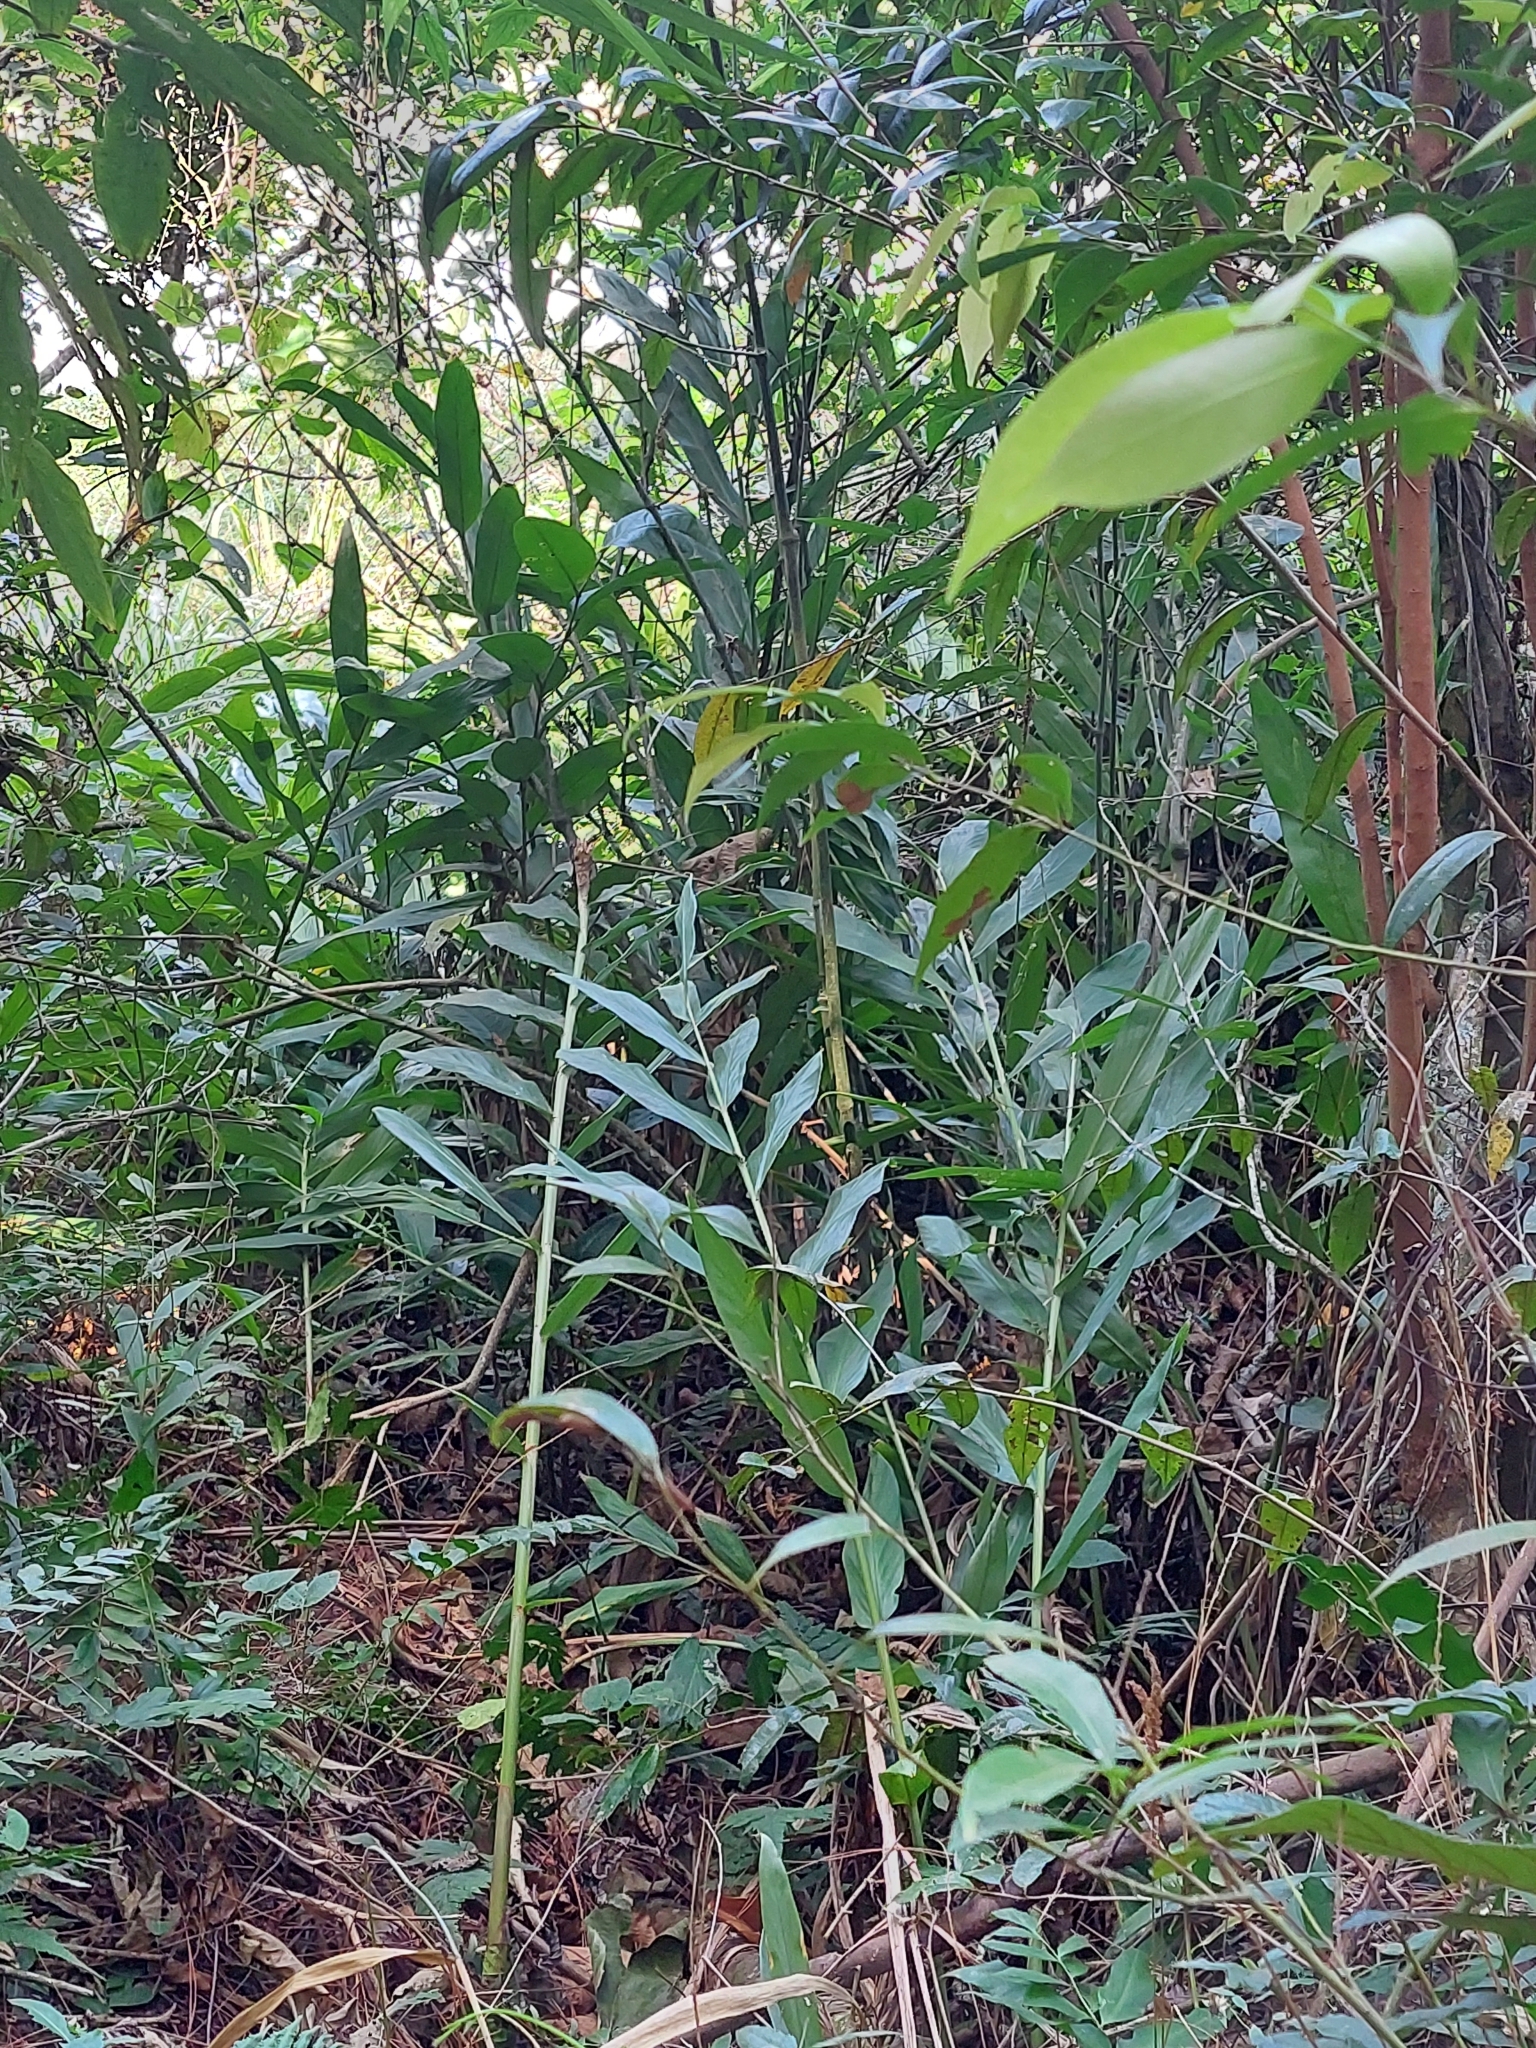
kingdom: Plantae
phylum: Tracheophyta
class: Liliopsida
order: Zingiberales
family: Zingiberaceae
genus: Hedychium
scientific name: Hedychium coronarium
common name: White garland-lily
